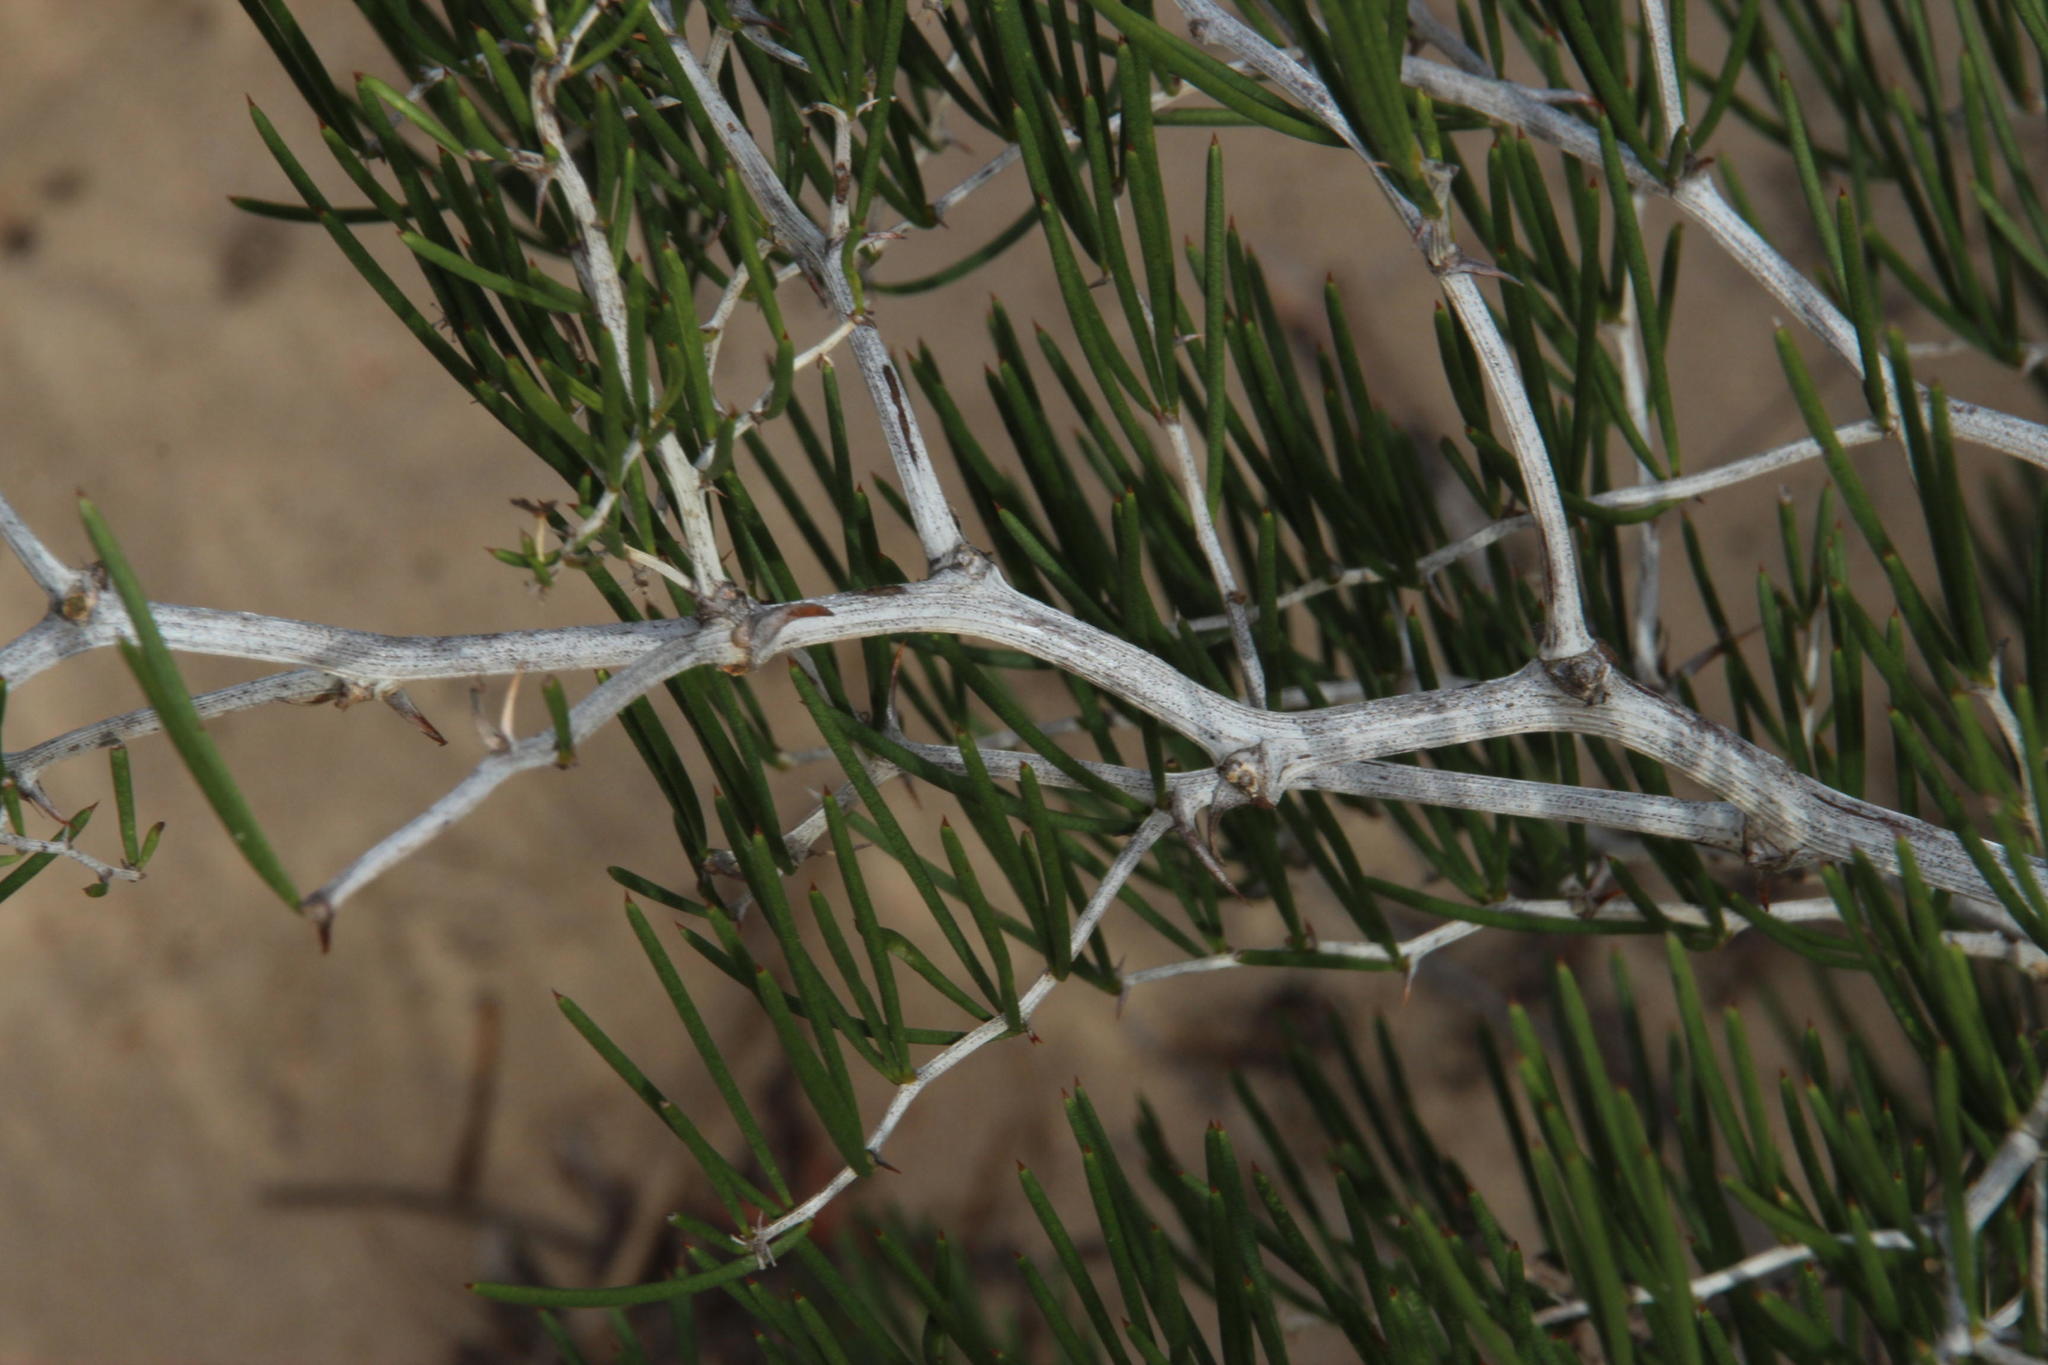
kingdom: Plantae
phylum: Tracheophyta
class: Liliopsida
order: Asparagales
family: Asparagaceae
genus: Asparagus
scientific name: Asparagus lignosus
